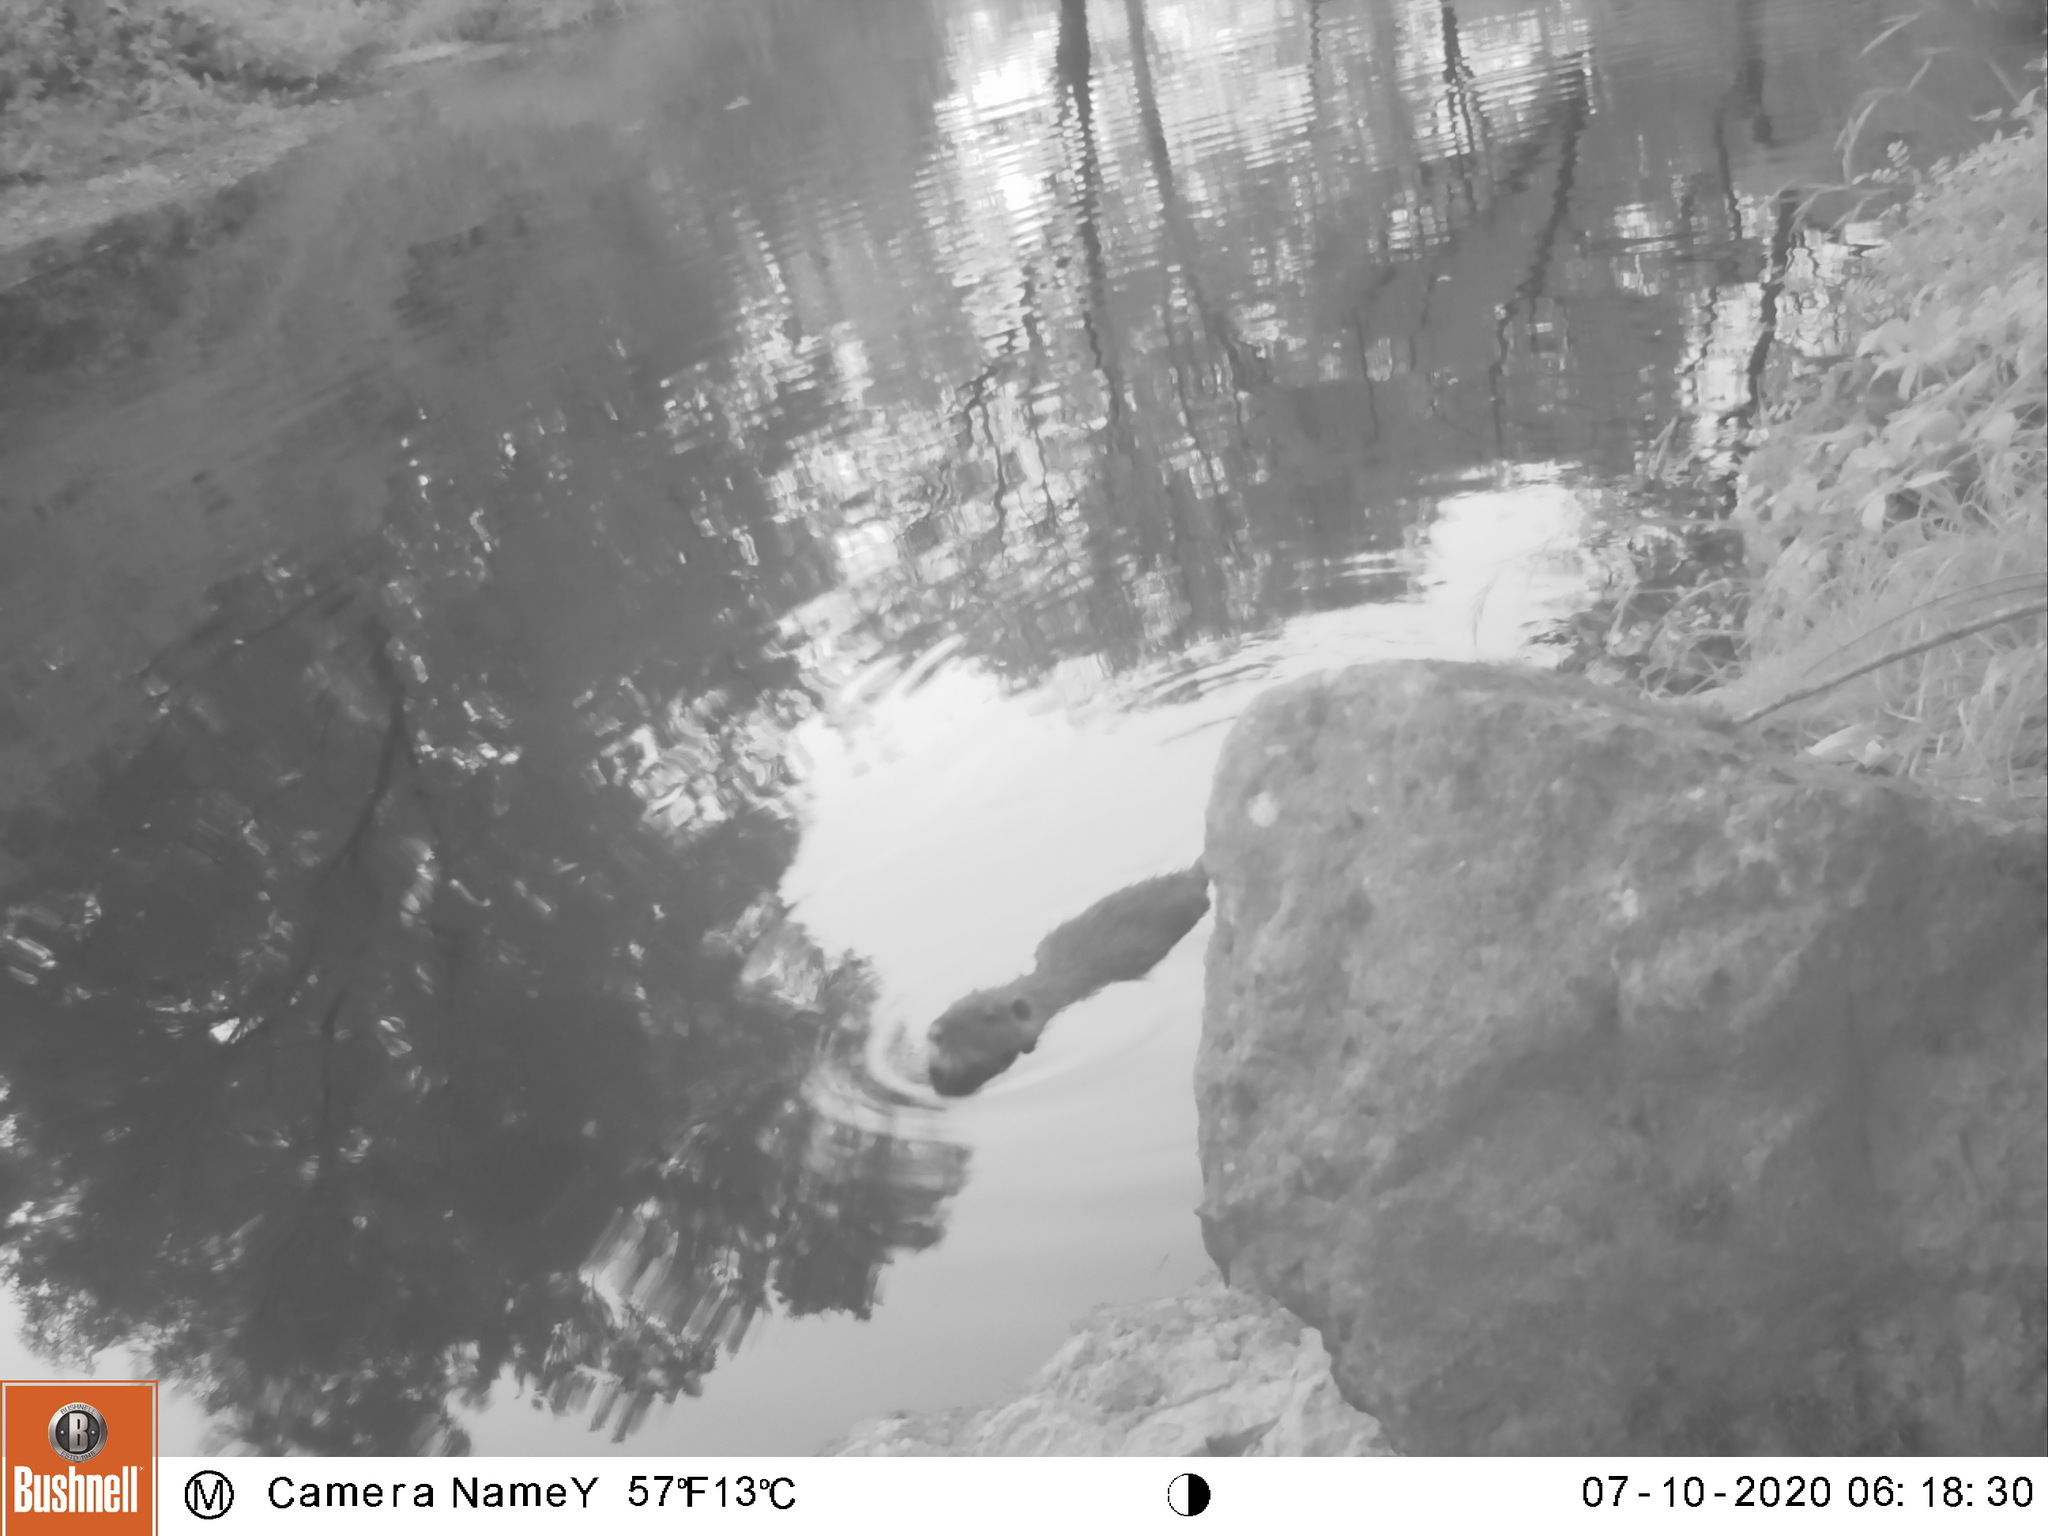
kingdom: Animalia
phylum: Chordata
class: Mammalia
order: Rodentia
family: Myocastoridae
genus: Myocastor
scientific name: Myocastor coypus
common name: Coypu
